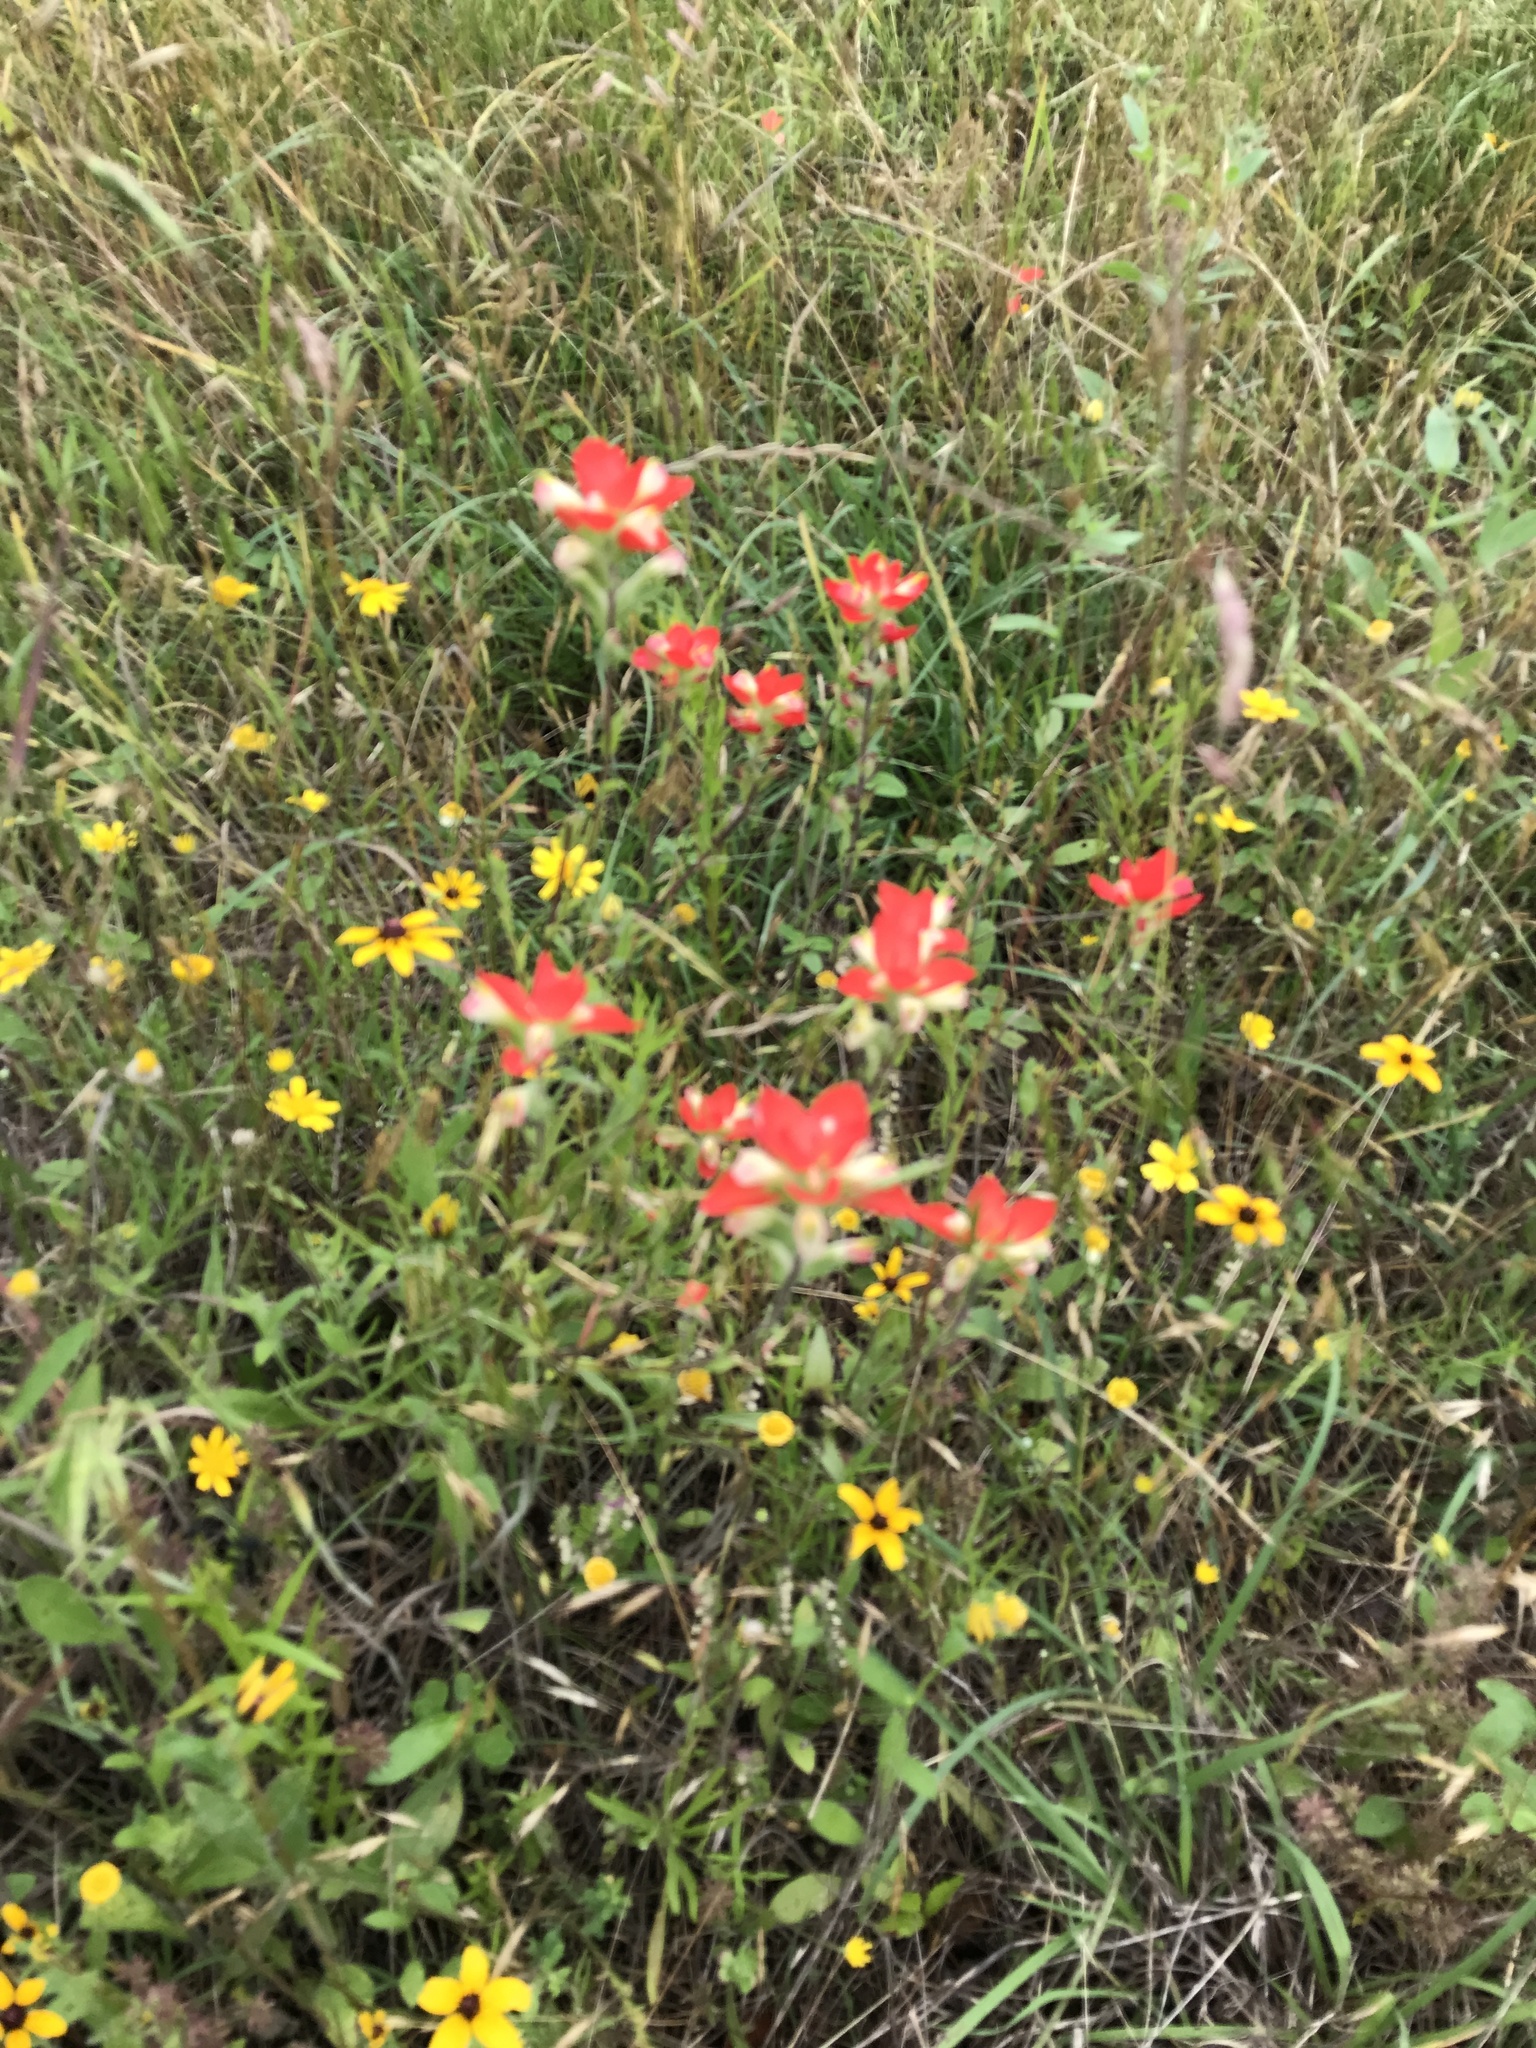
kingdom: Plantae
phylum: Tracheophyta
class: Magnoliopsida
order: Lamiales
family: Orobanchaceae
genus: Castilleja
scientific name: Castilleja indivisa
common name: Texas paintbrush
